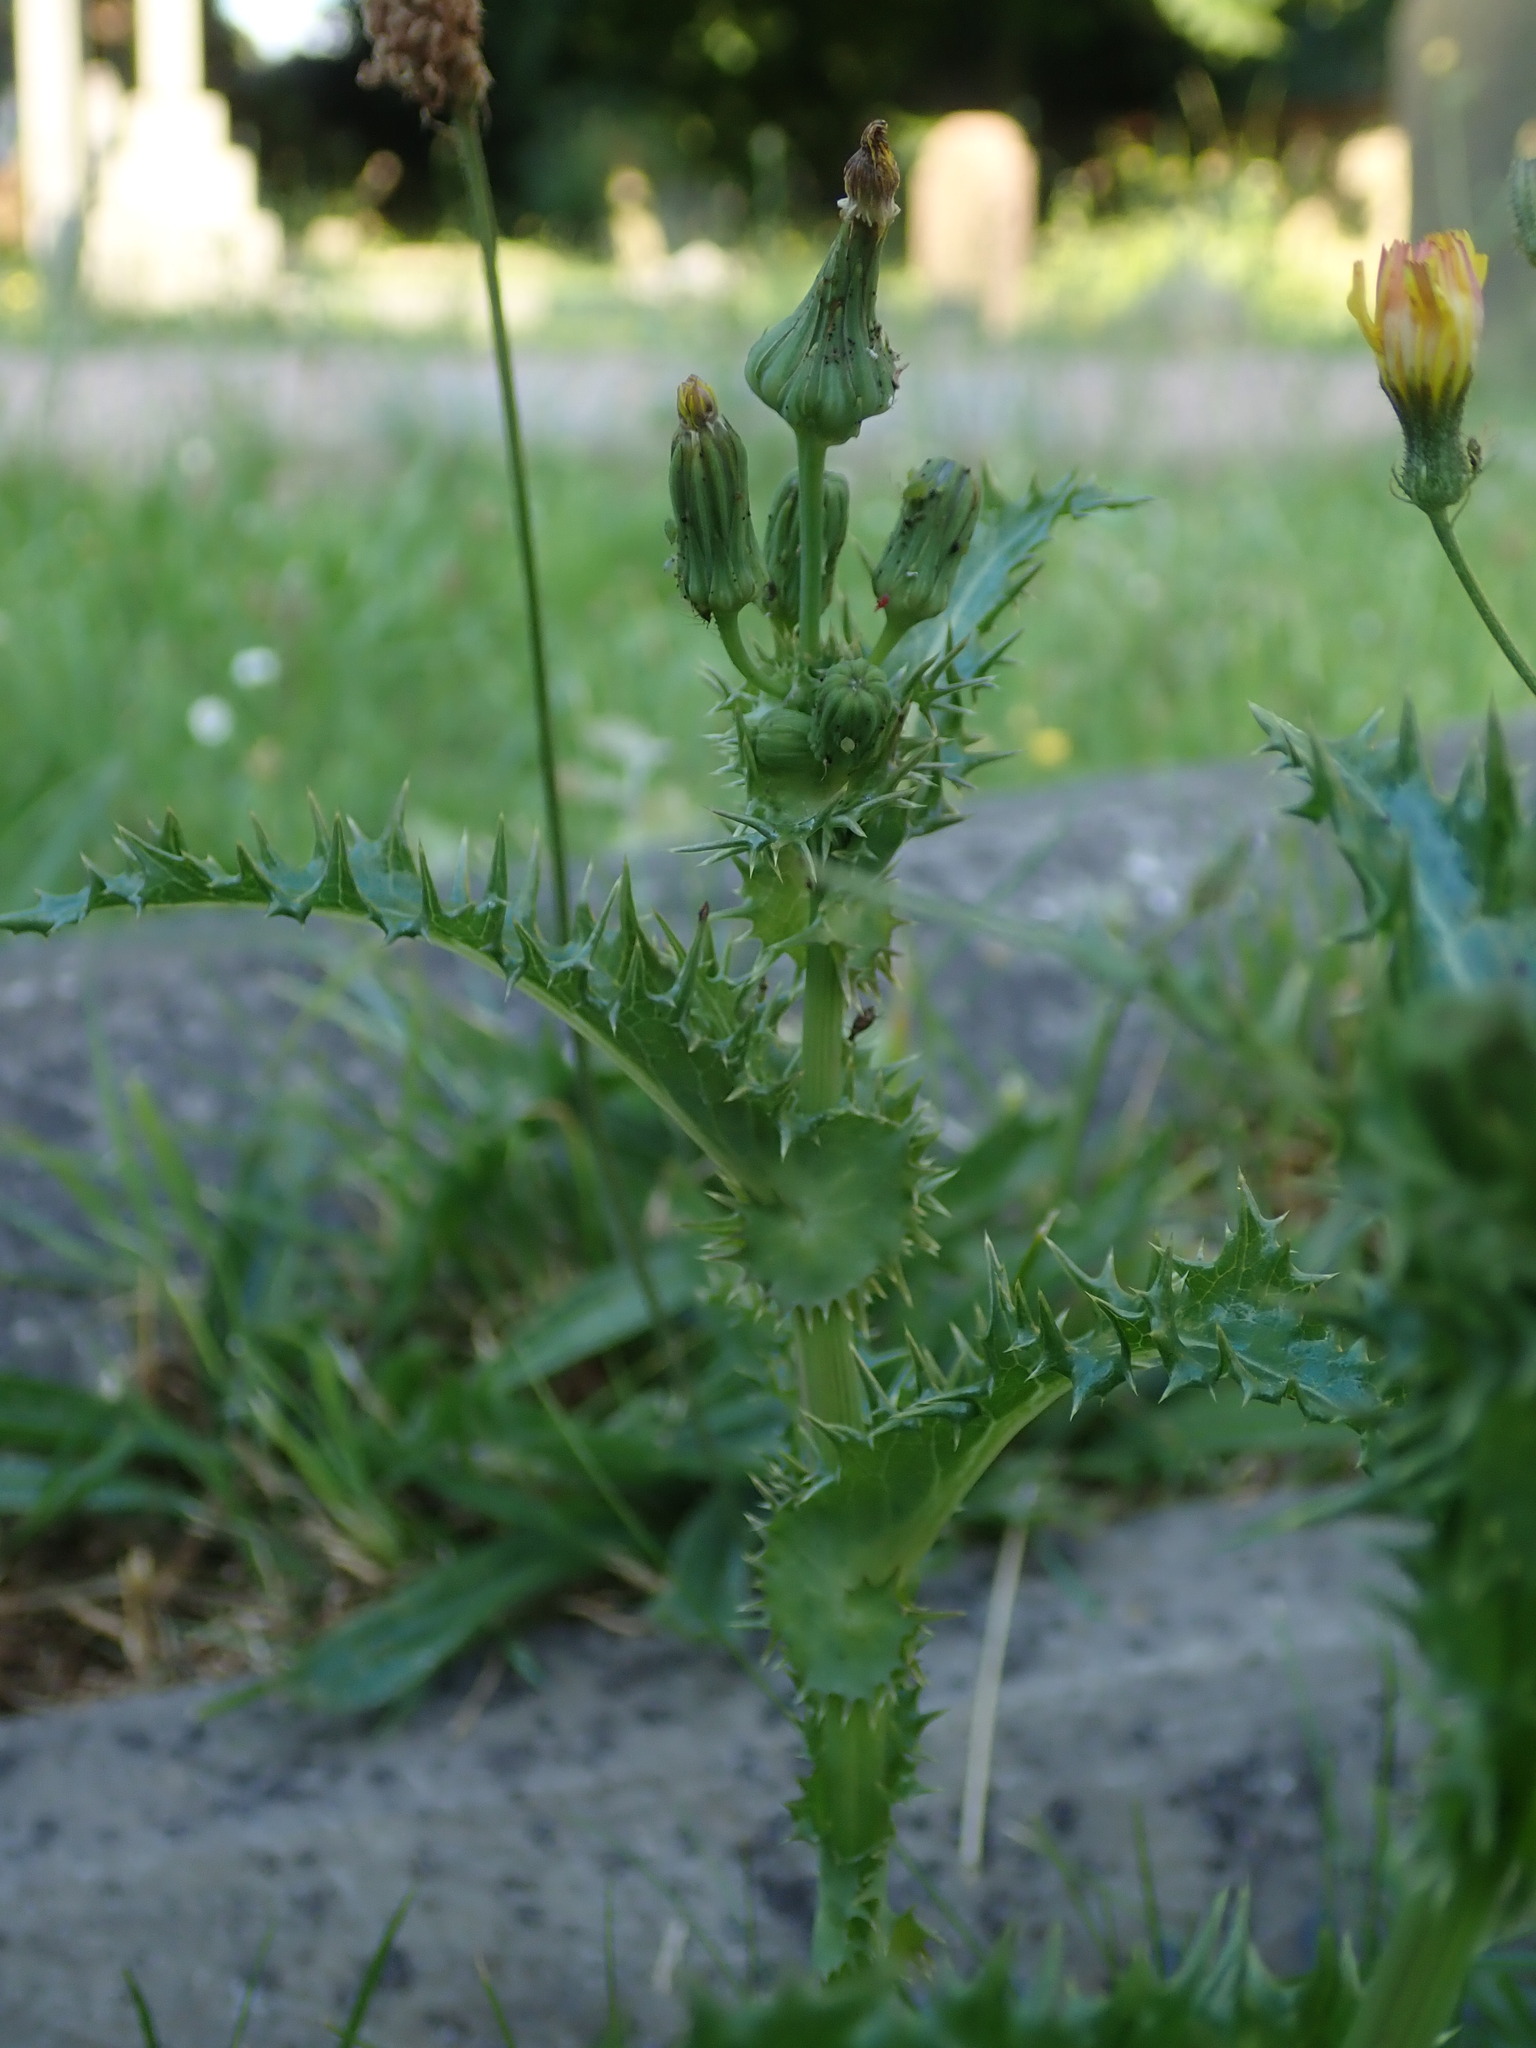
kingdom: Plantae
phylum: Tracheophyta
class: Magnoliopsida
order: Asterales
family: Asteraceae
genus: Sonchus
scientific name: Sonchus asper
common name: Prickly sow-thistle
